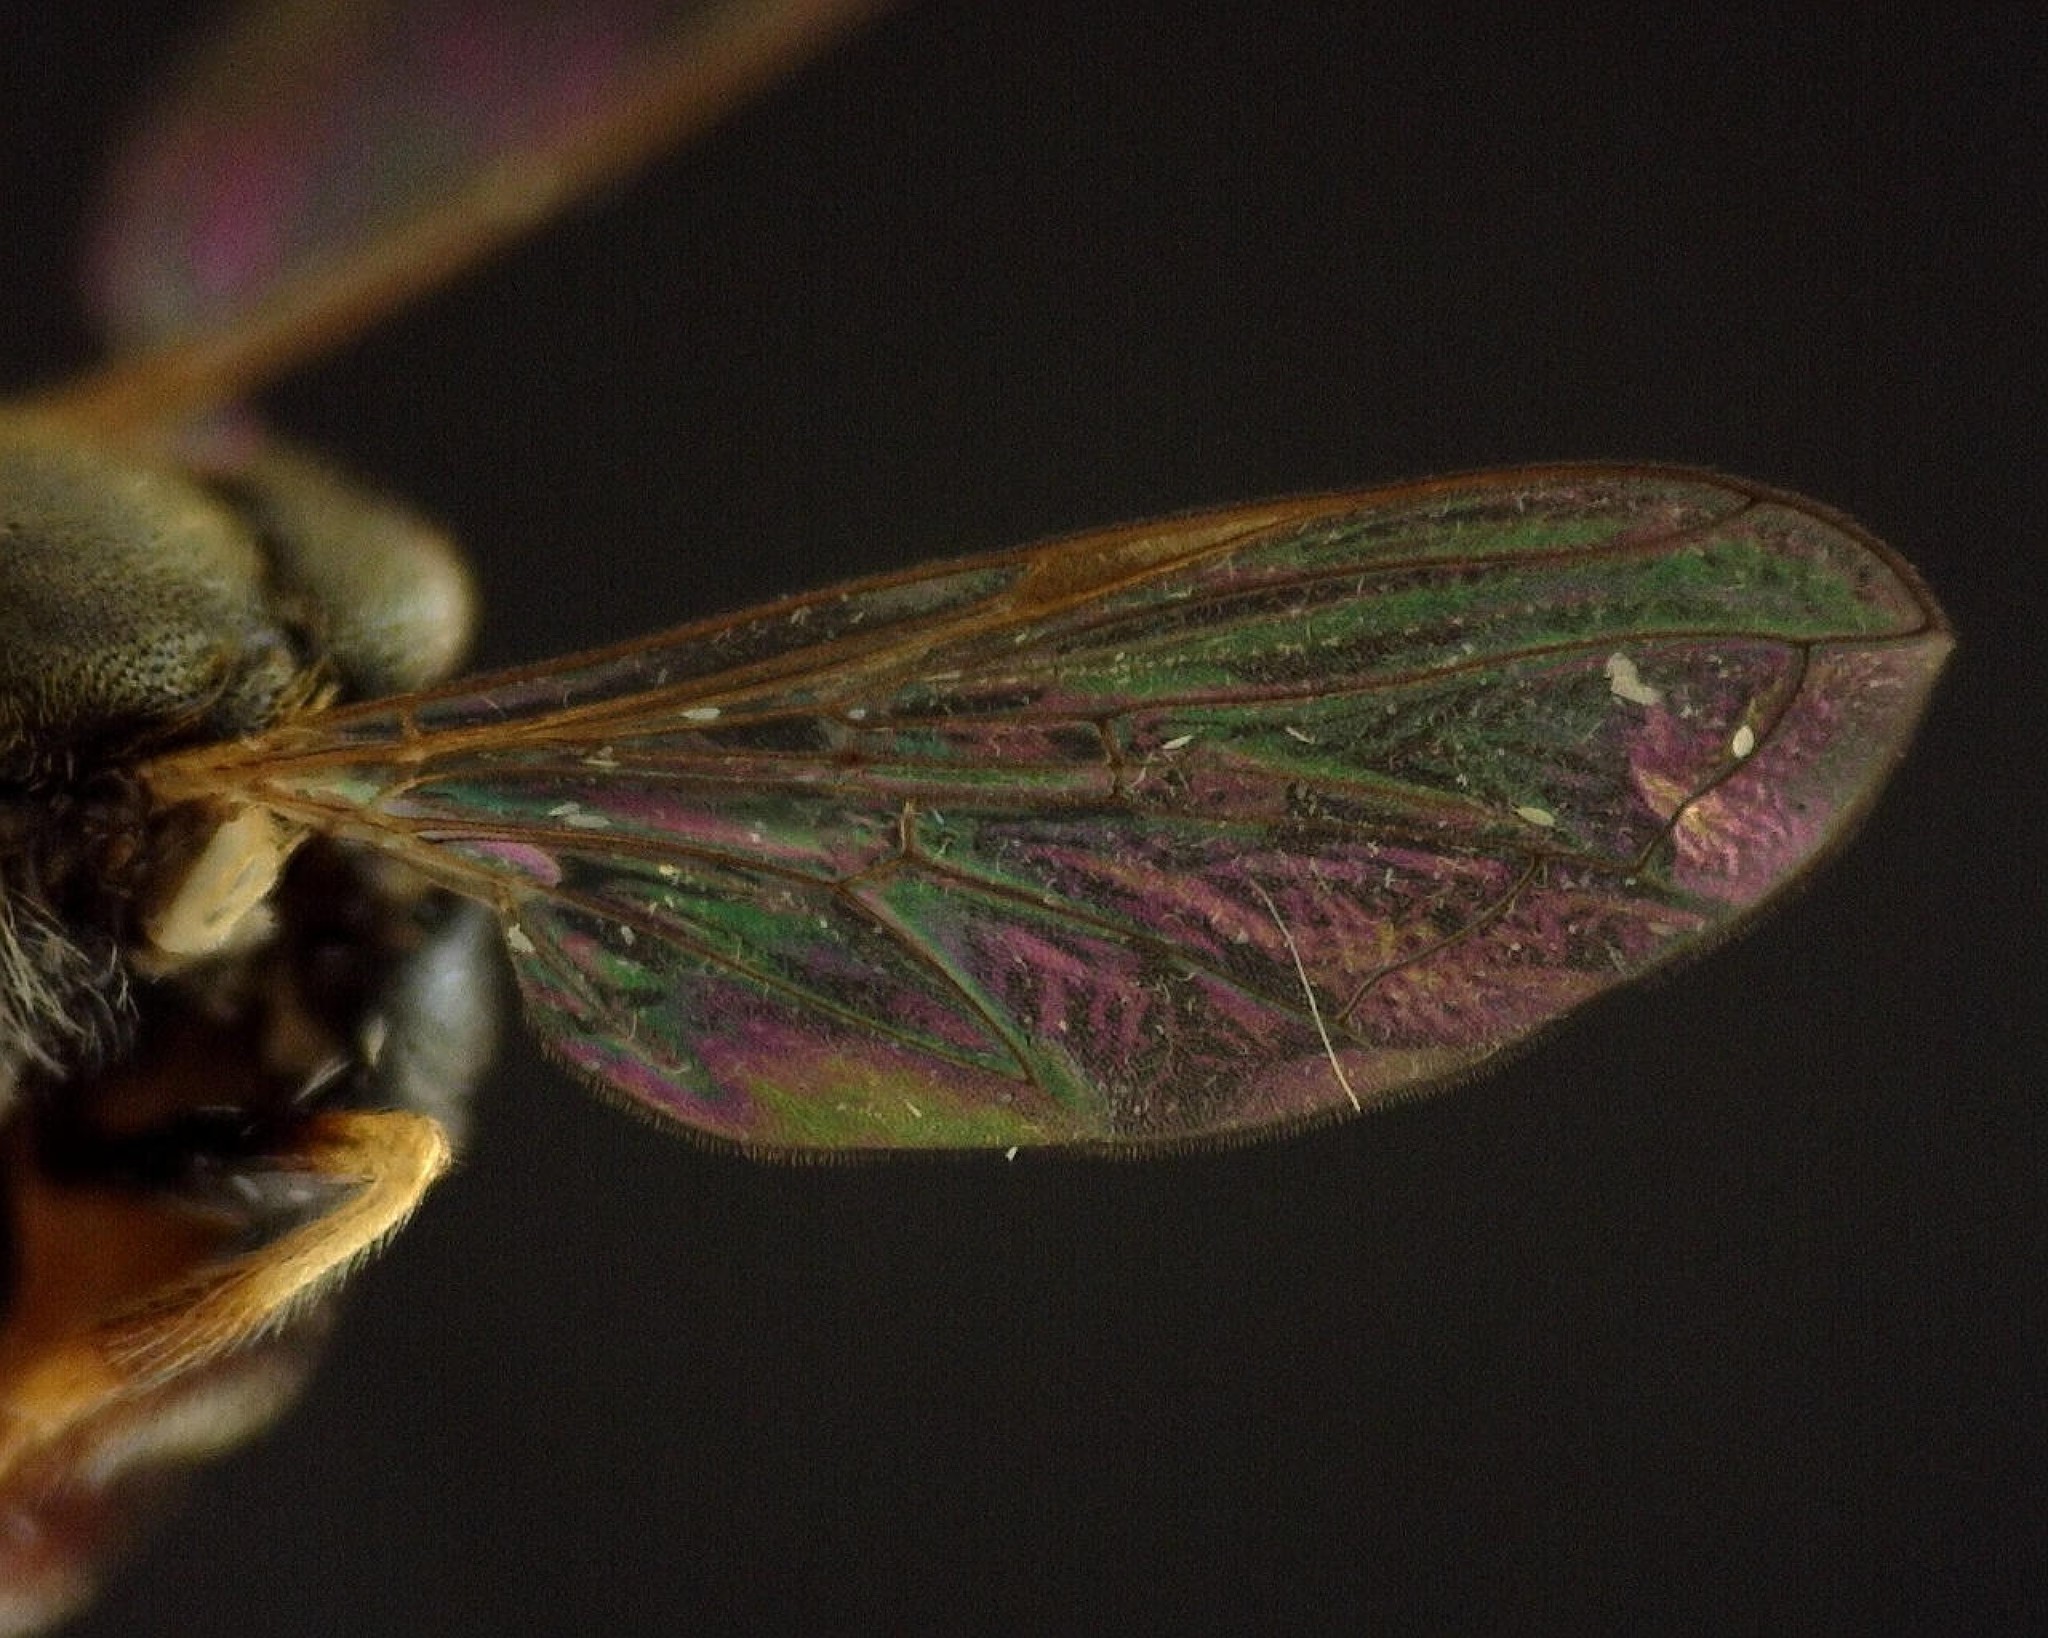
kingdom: Animalia
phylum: Arthropoda
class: Insecta
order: Diptera
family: Syrphidae
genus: Paragus
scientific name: Paragus
